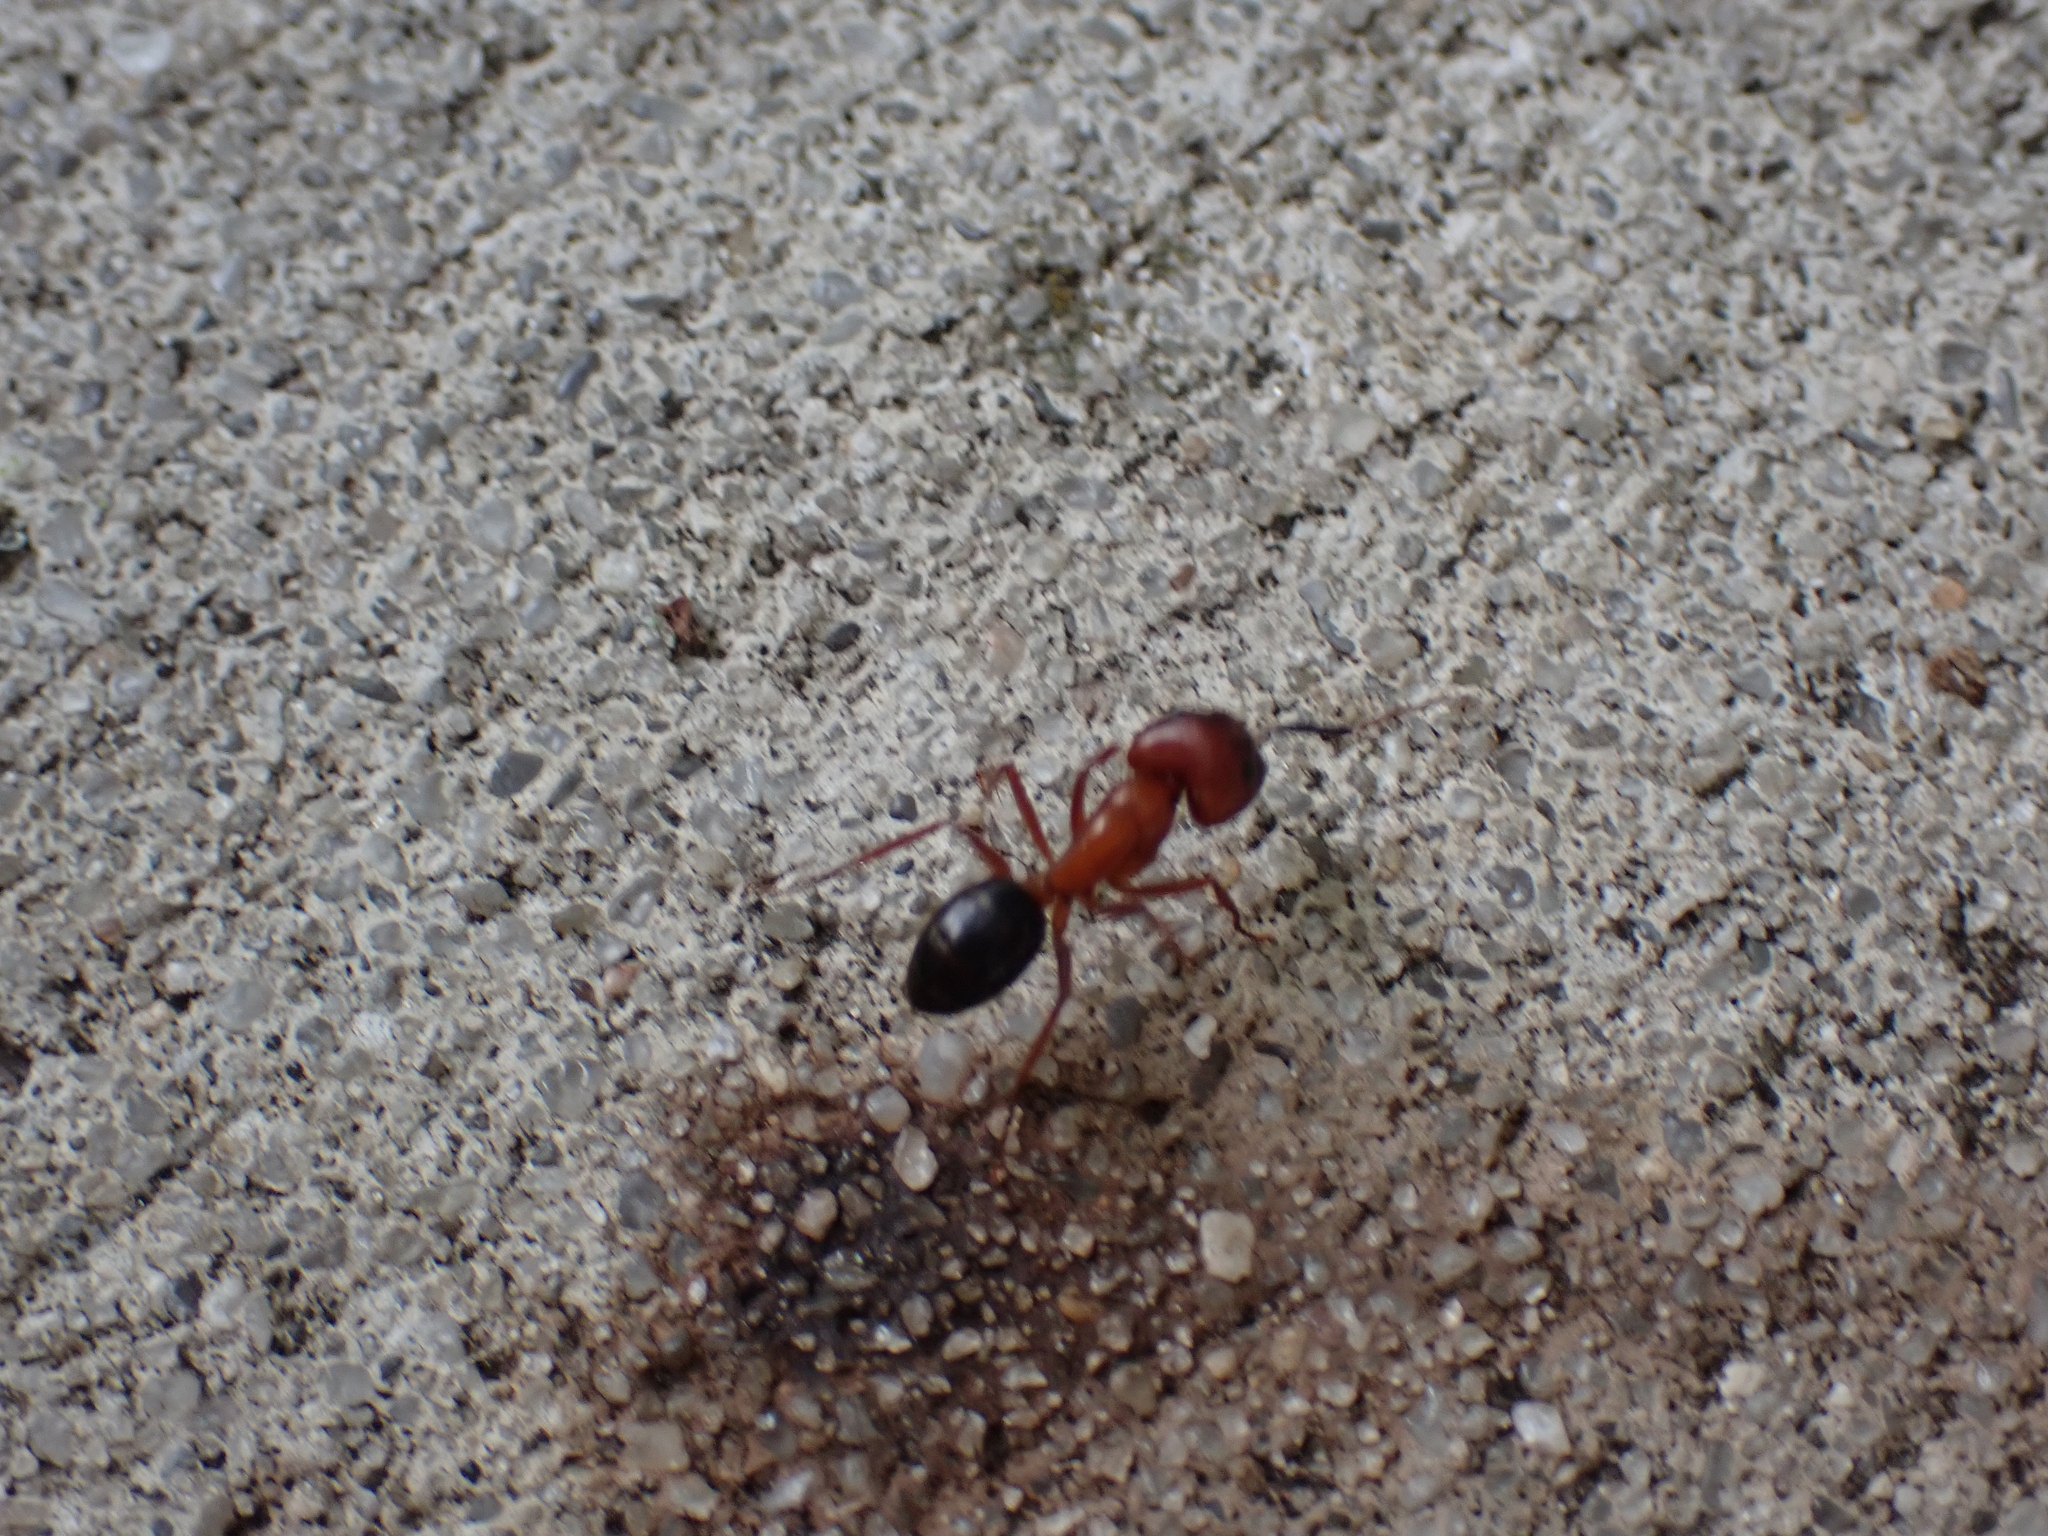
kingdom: Animalia
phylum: Arthropoda
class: Insecta
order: Hymenoptera
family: Formicidae
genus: Camponotus
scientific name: Camponotus floridanus
